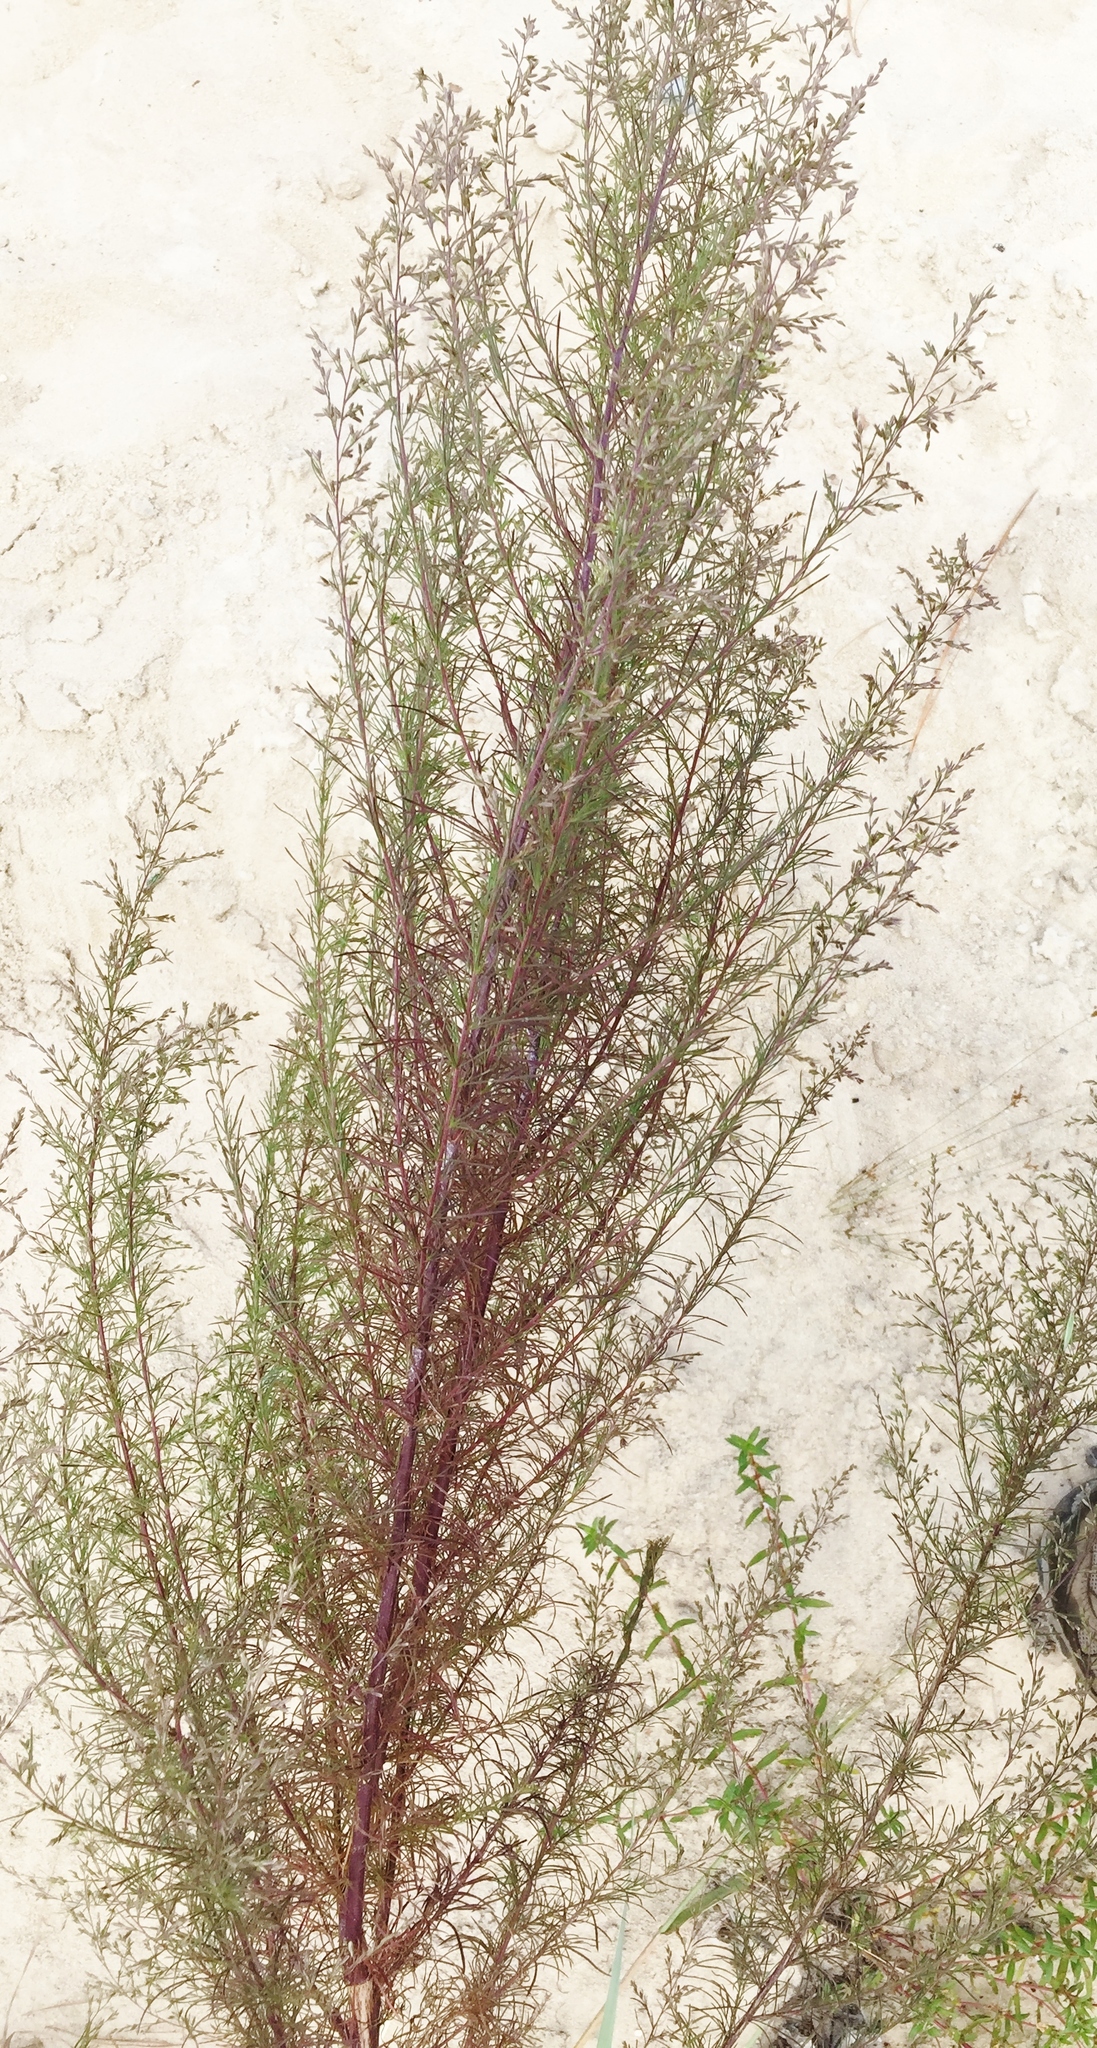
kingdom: Plantae
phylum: Tracheophyta
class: Magnoliopsida
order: Asterales
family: Asteraceae
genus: Eupatorium
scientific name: Eupatorium capillifolium
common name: Dog-fennel
